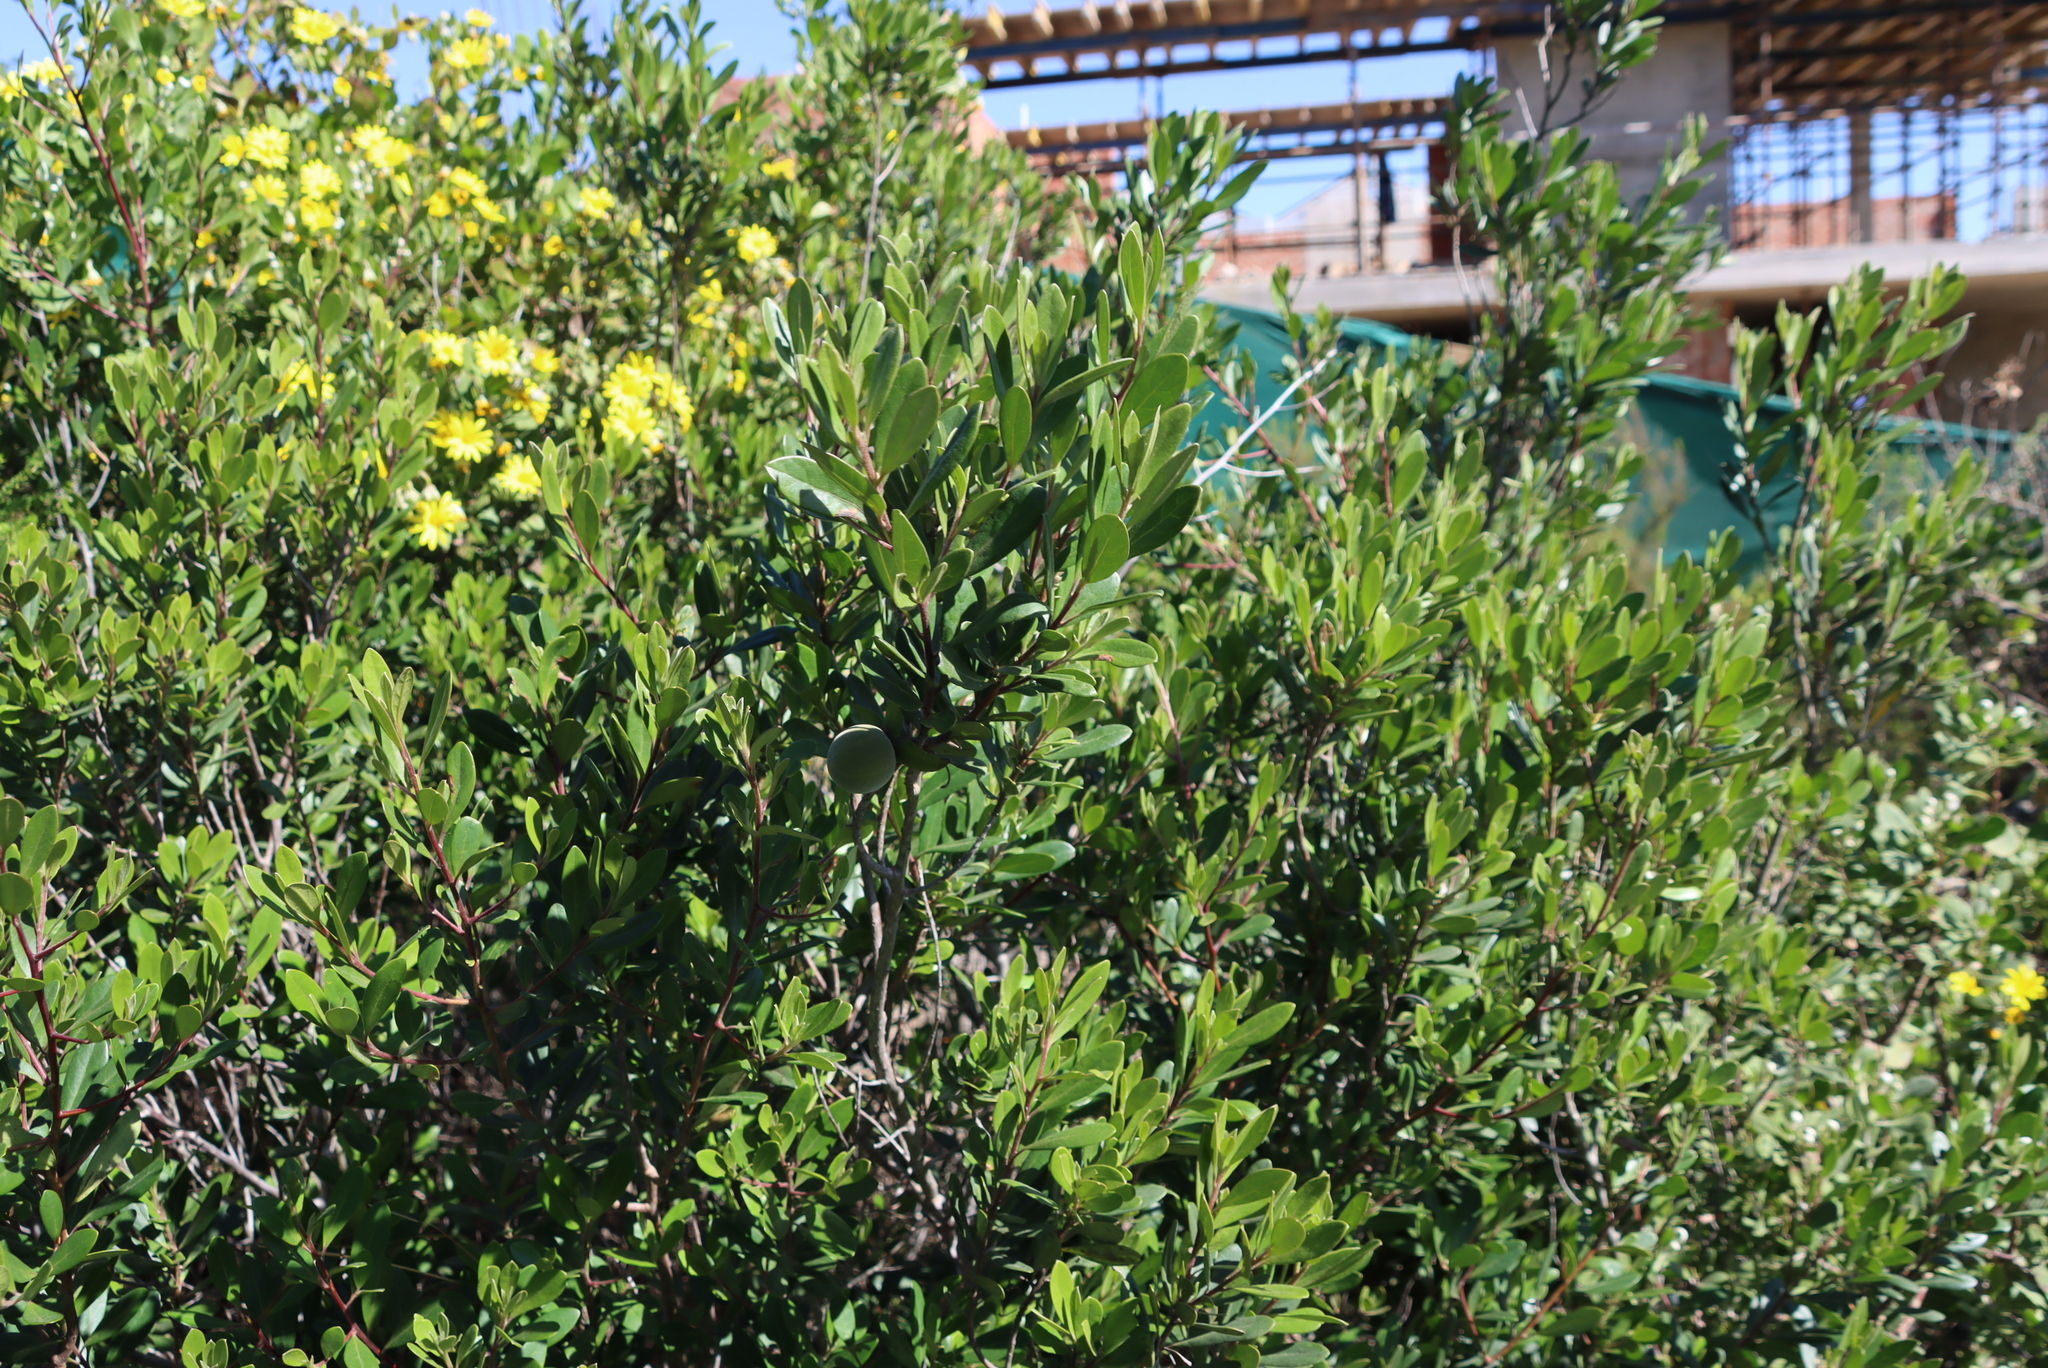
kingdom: Plantae
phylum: Tracheophyta
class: Magnoliopsida
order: Ericales
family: Ebenaceae
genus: Diospyros
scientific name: Diospyros dichrophylla
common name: Common star-apple
